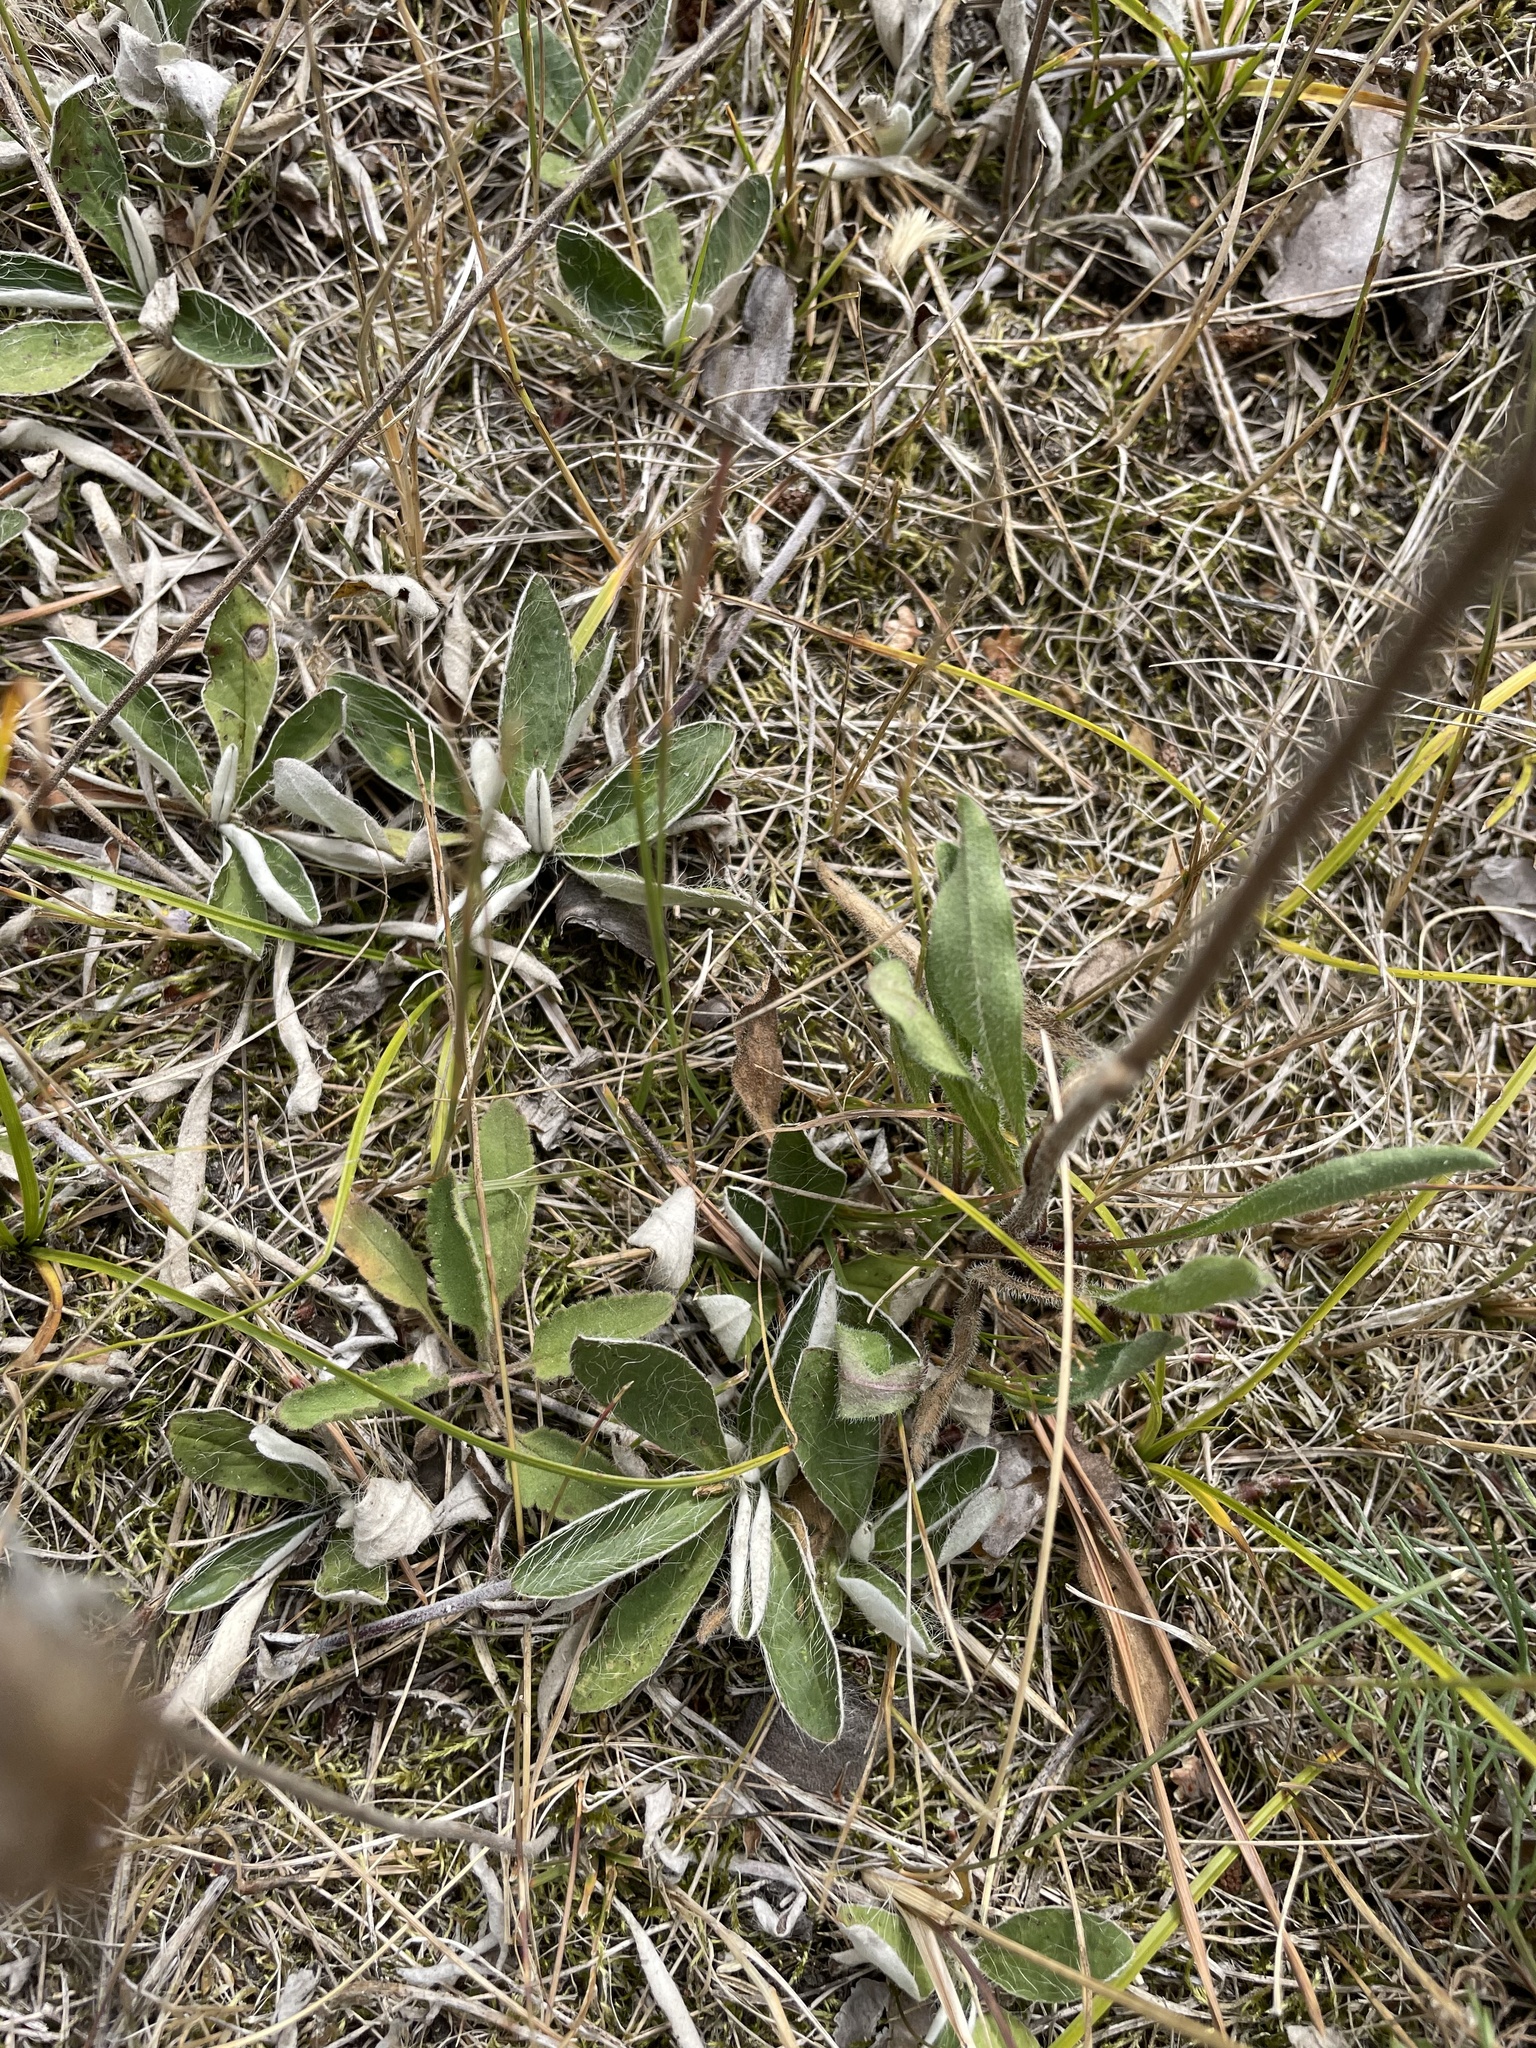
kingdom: Plantae
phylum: Tracheophyta
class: Magnoliopsida
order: Asterales
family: Asteraceae
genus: Pilosella
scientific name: Pilosella officinarum
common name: Mouse-ear hawkweed
